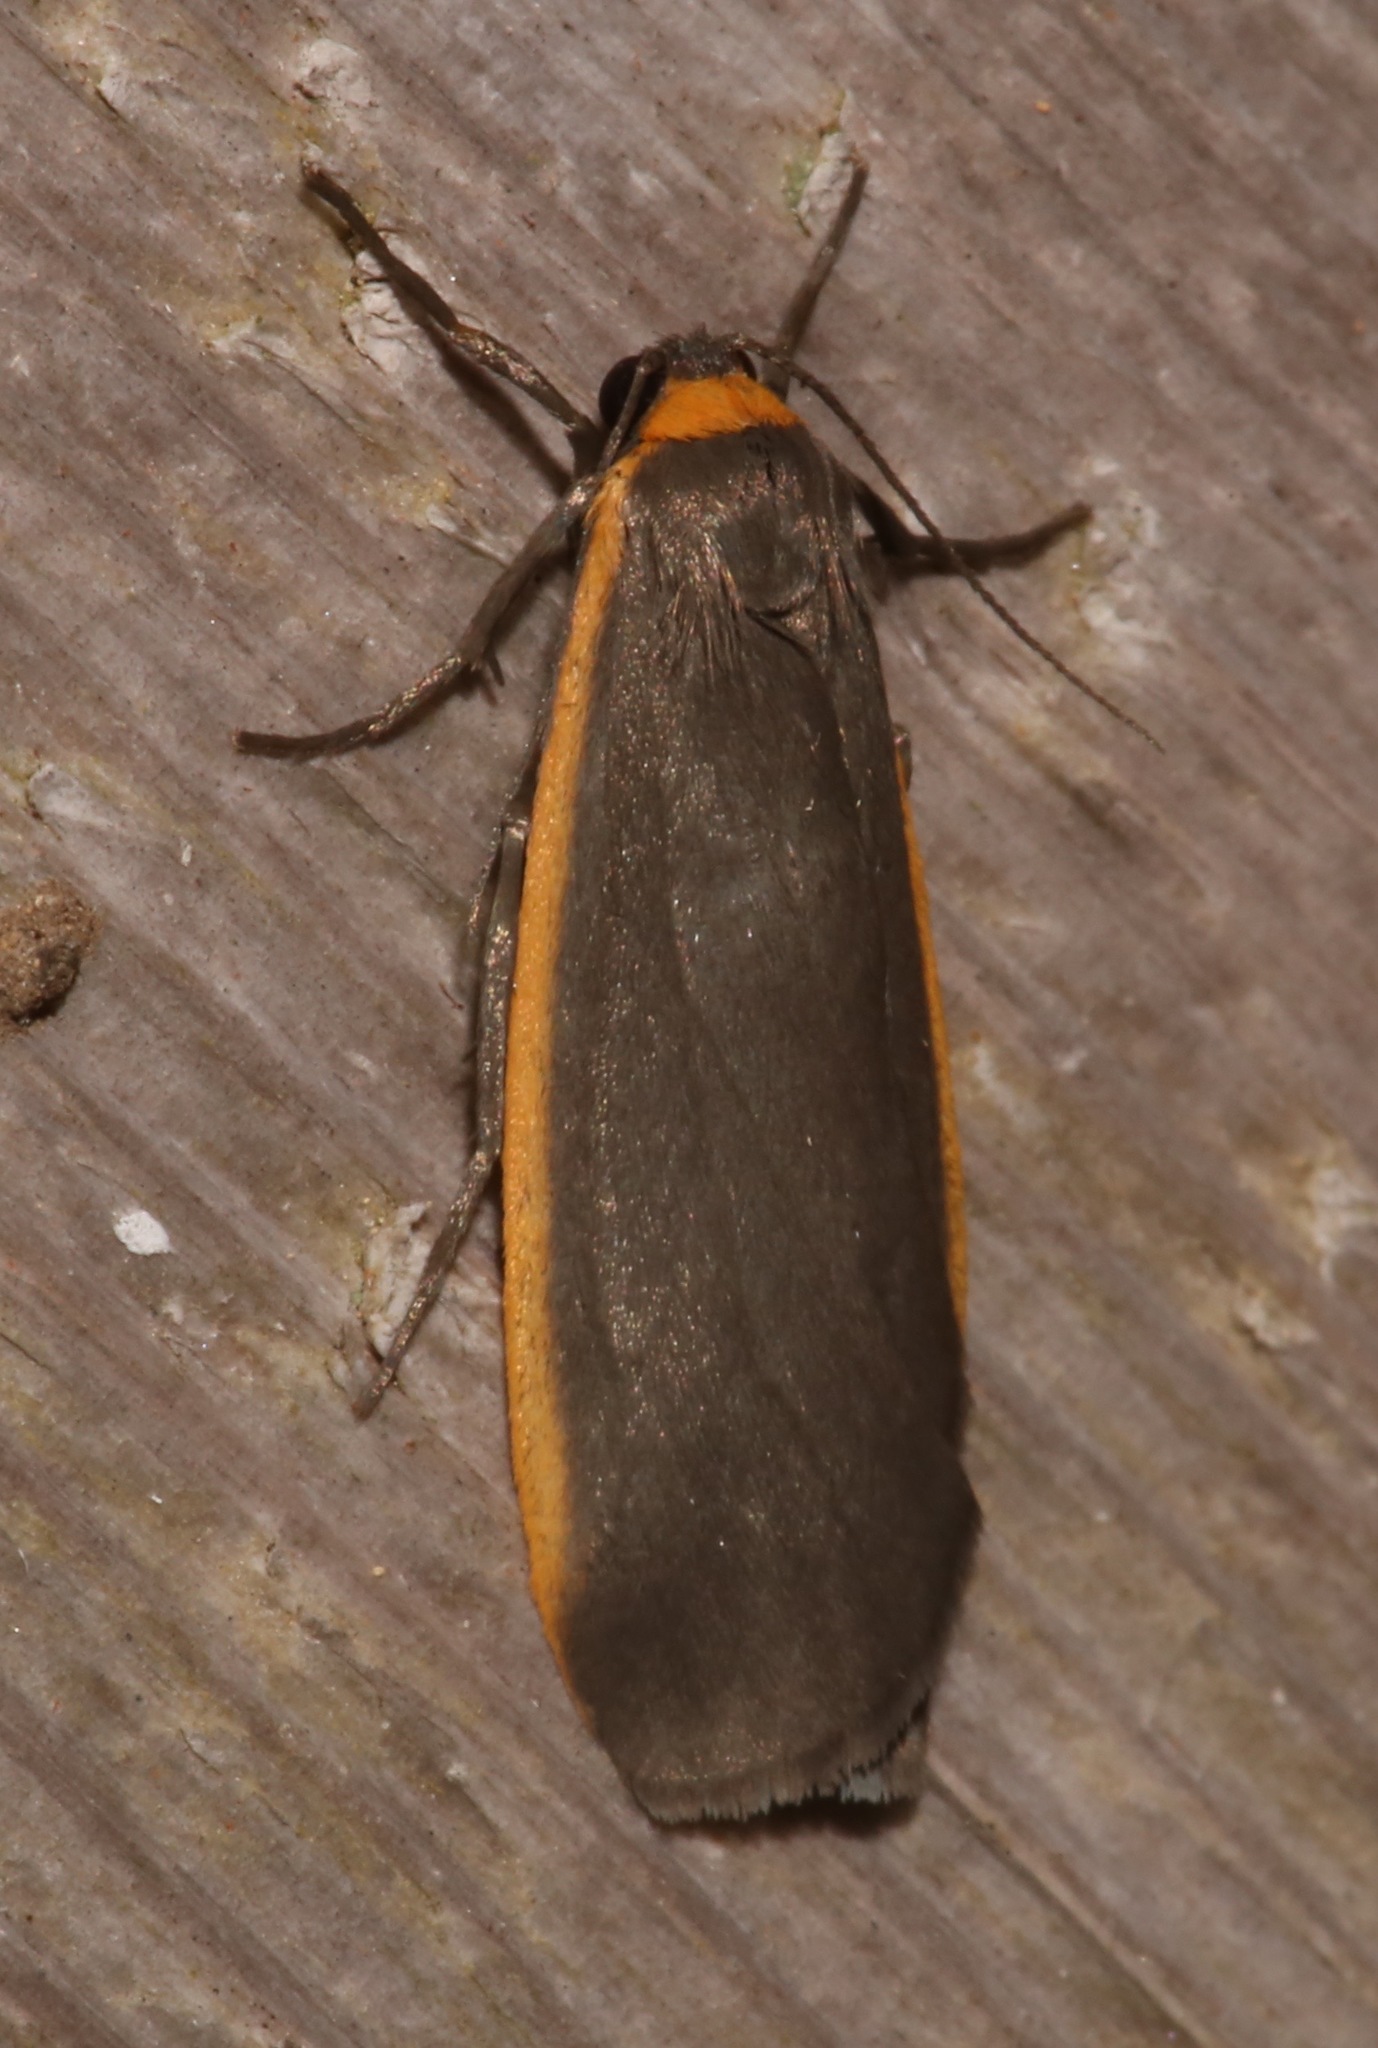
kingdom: Animalia
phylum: Arthropoda
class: Insecta
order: Lepidoptera
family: Erebidae
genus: Manulea
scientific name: Manulea bicolor
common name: Bicolored moth
